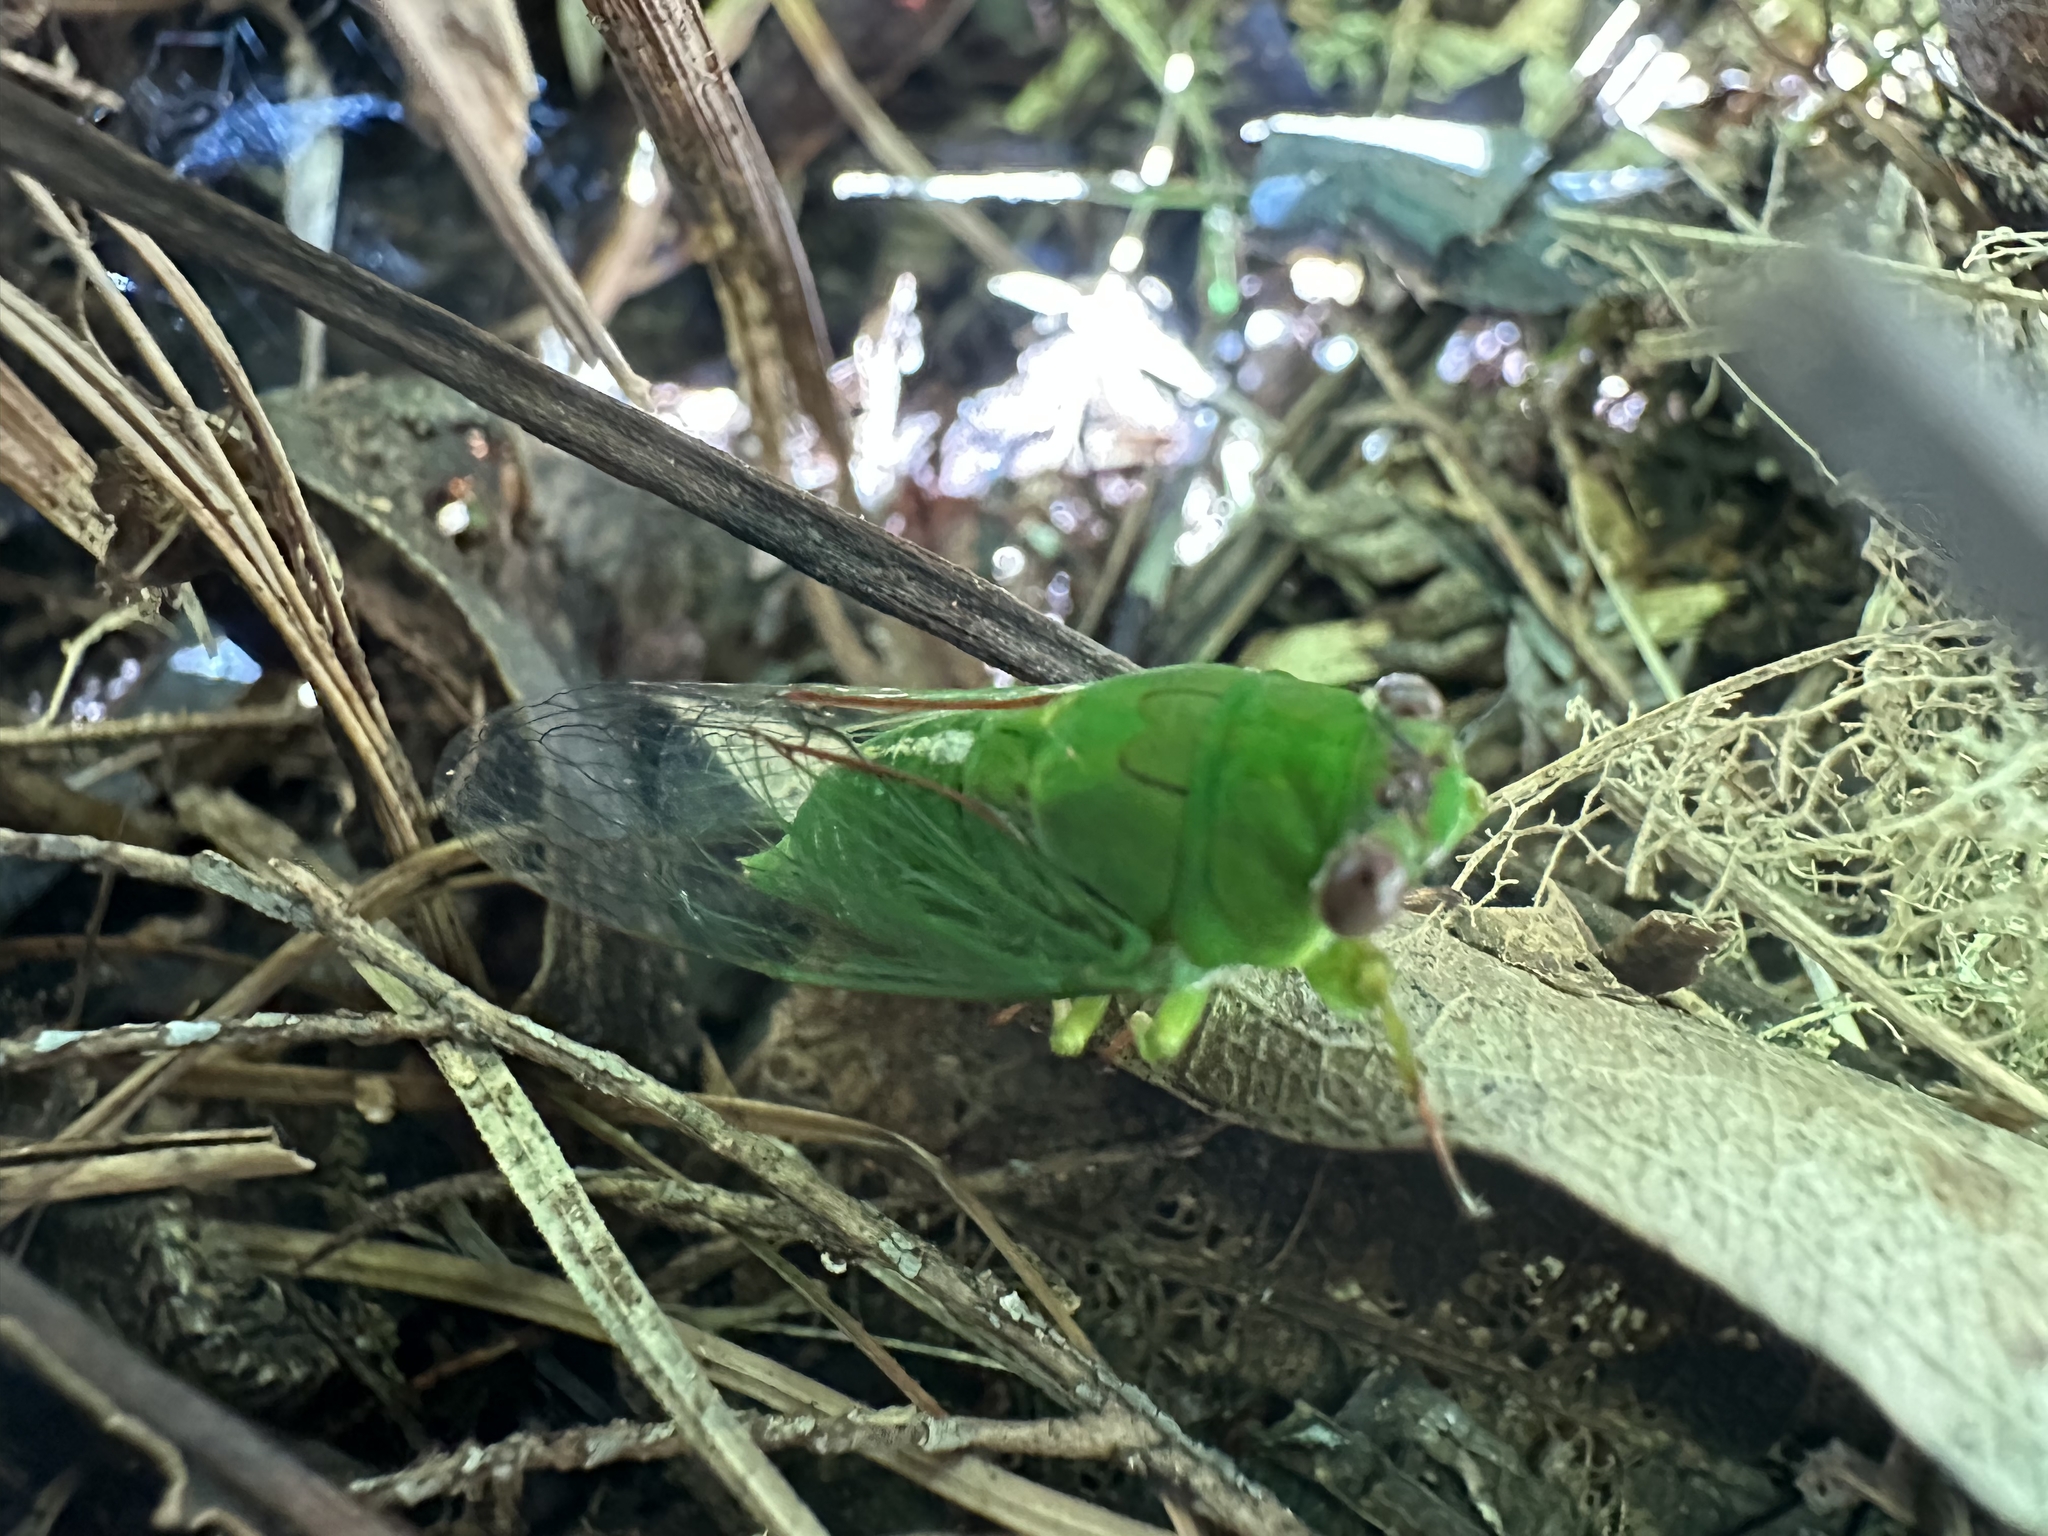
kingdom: Animalia
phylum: Arthropoda
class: Insecta
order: Hemiptera
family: Cicadidae
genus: Kikihia
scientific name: Kikihia dugdalei
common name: Dugdale's cicada
